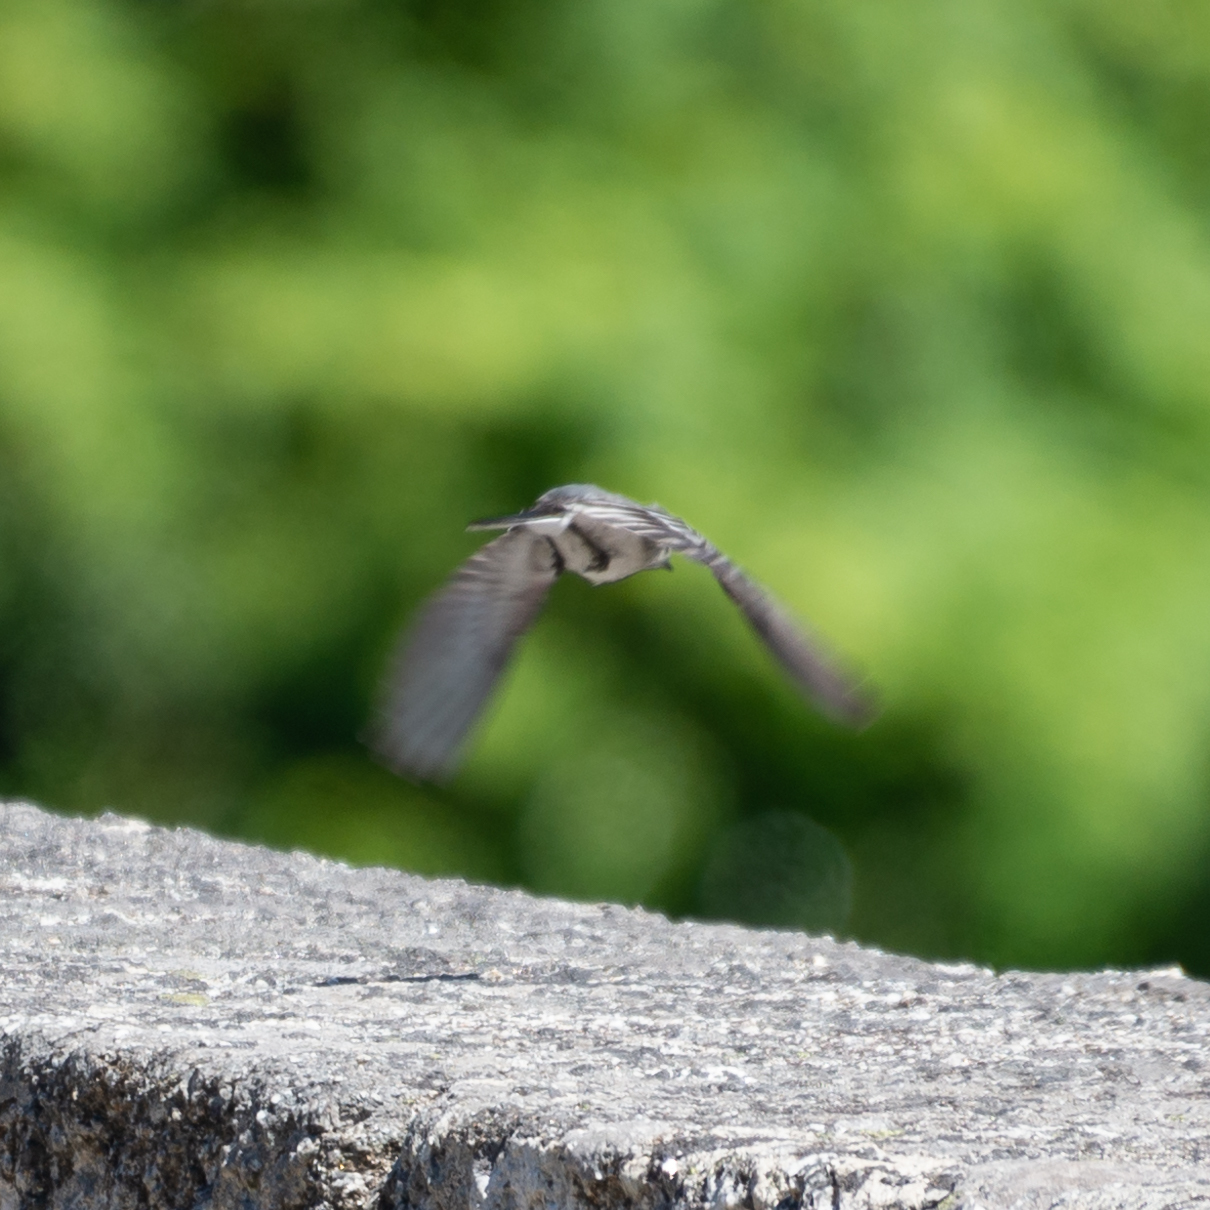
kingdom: Animalia
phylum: Chordata
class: Aves
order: Passeriformes
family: Motacillidae
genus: Motacilla
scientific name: Motacilla alba
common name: White wagtail
